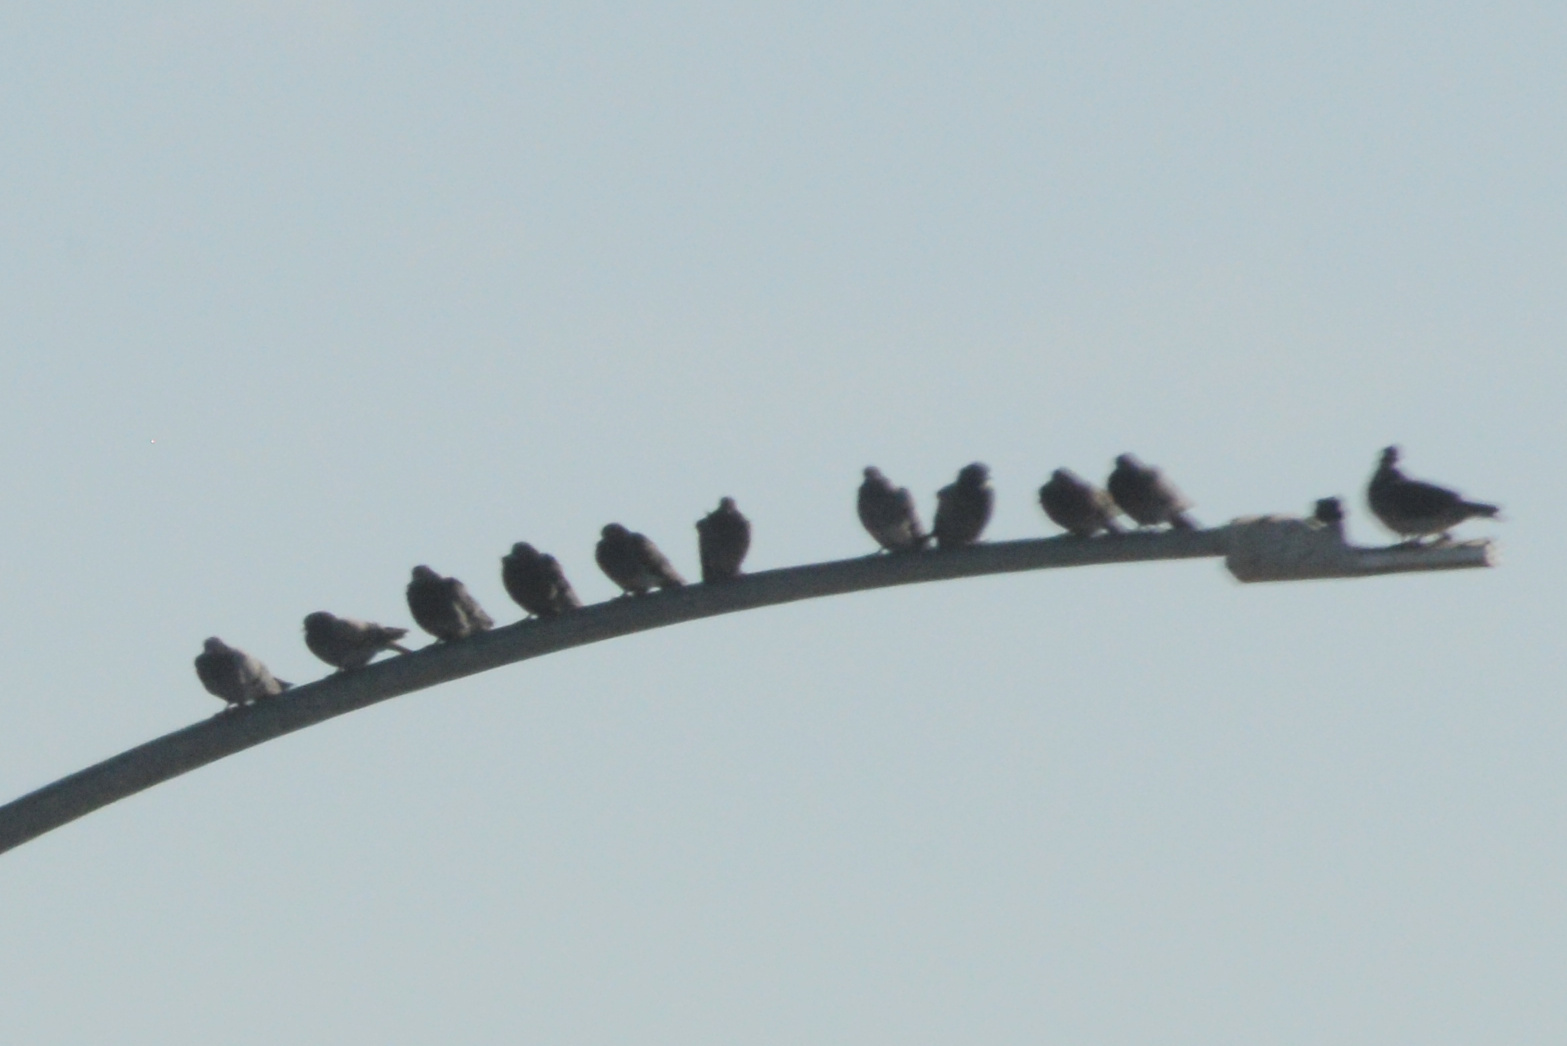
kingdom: Animalia
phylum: Chordata
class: Aves
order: Columbiformes
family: Columbidae
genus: Columba
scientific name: Columba livia
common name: Rock pigeon
